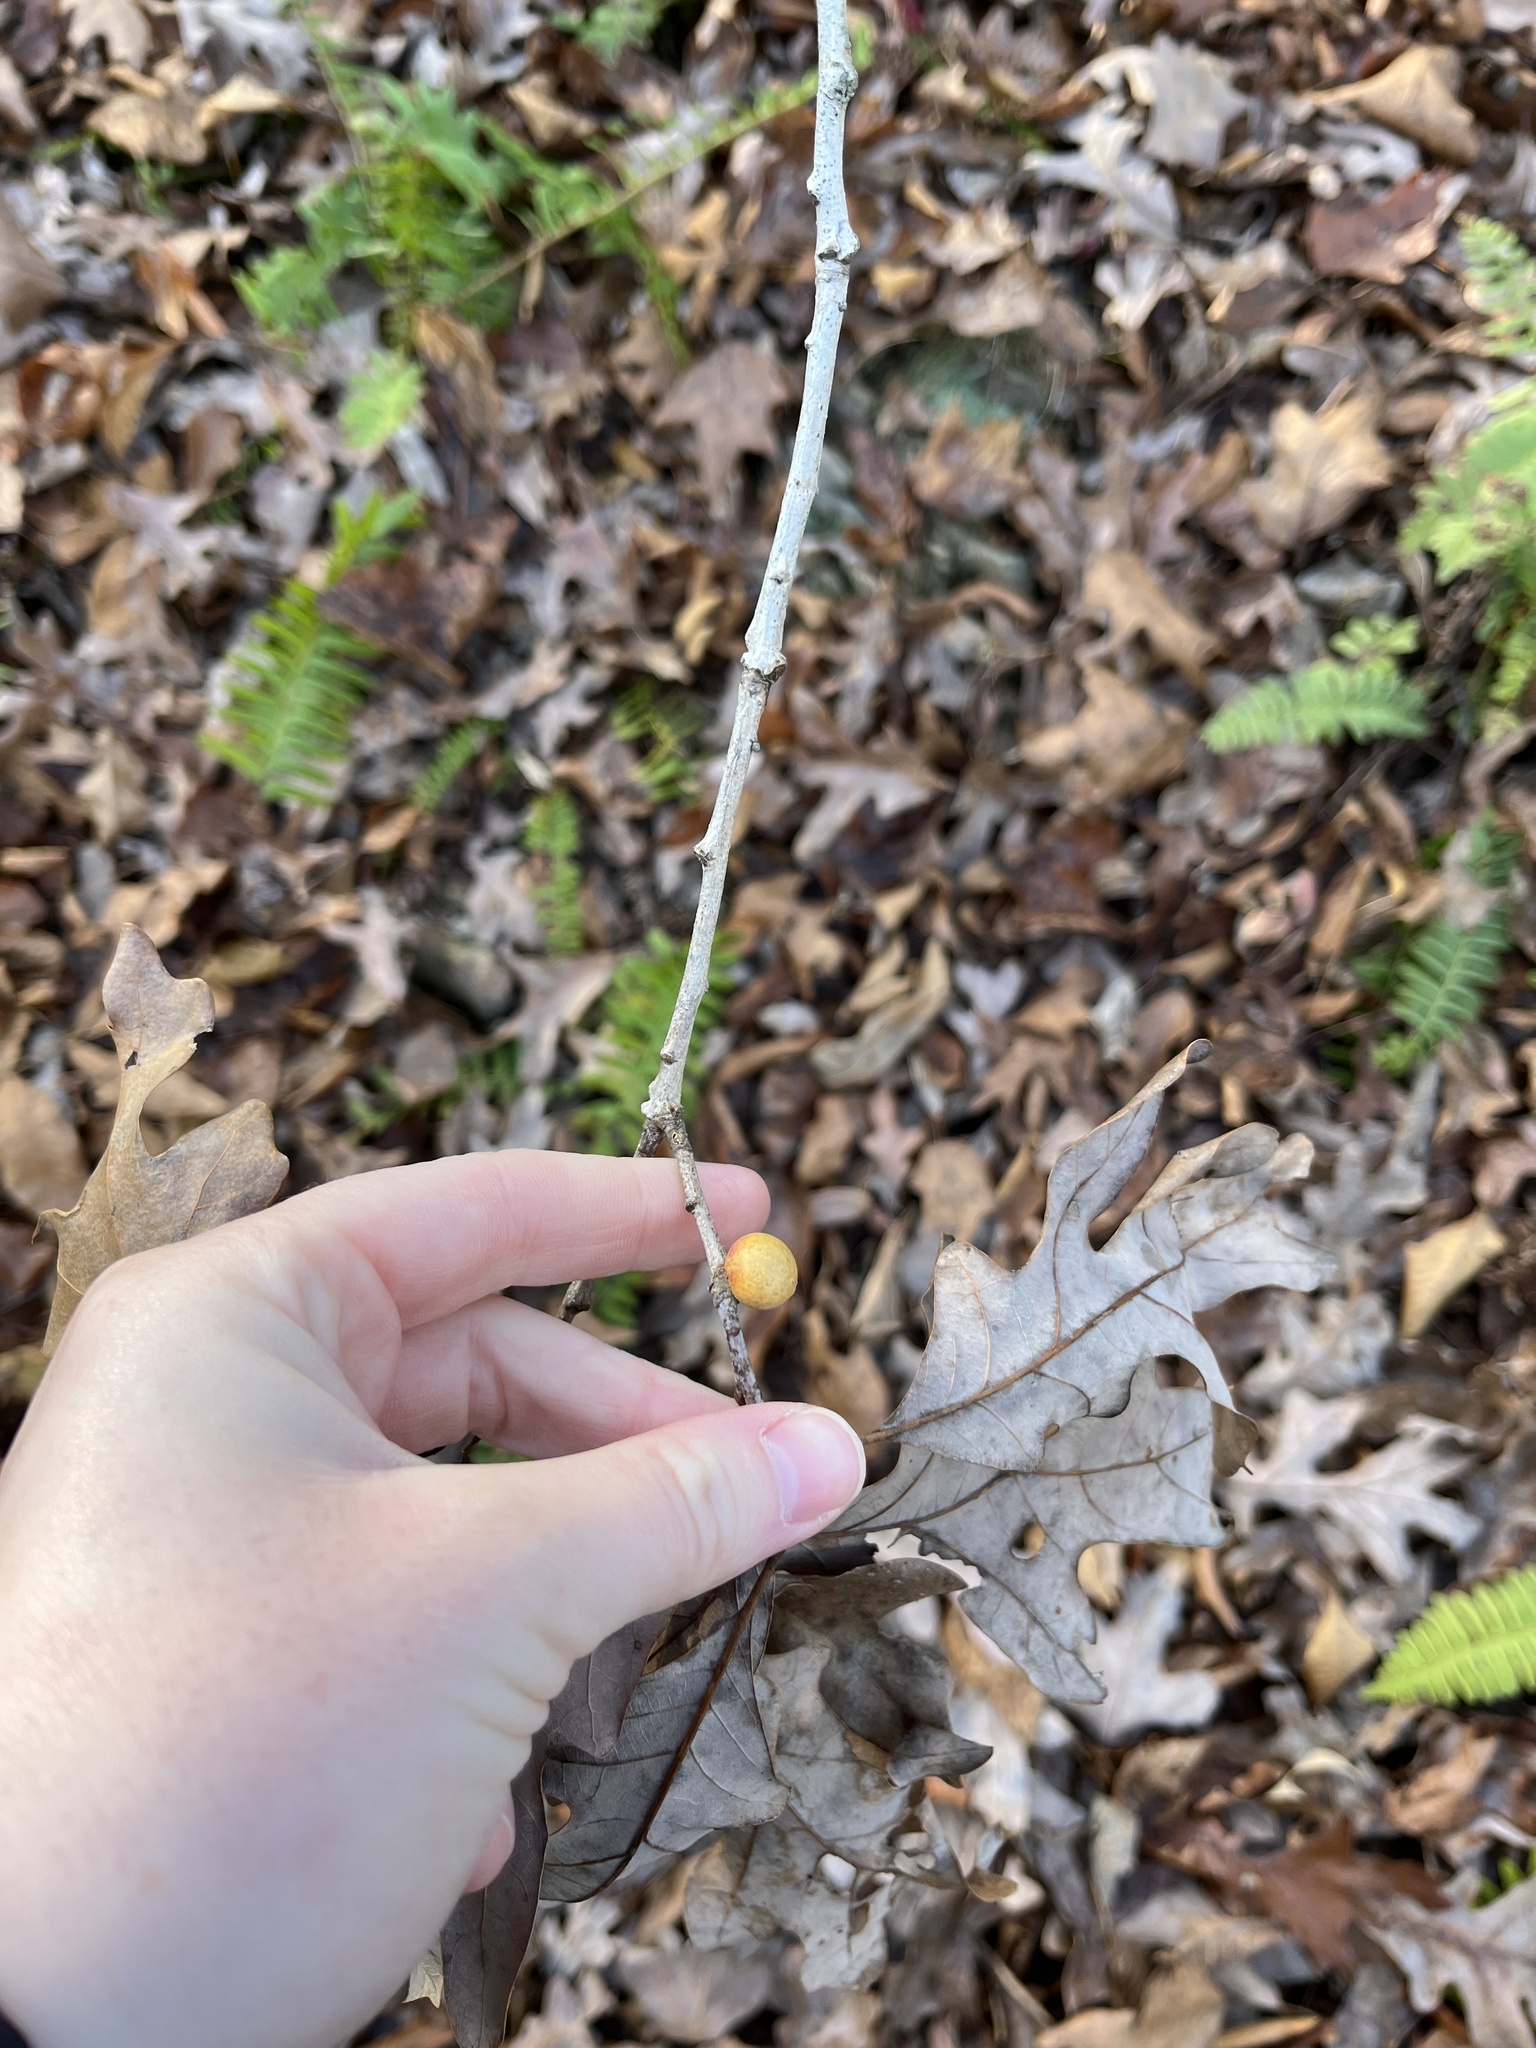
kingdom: Animalia
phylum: Arthropoda
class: Insecta
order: Hymenoptera
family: Cynipidae
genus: Disholcaspis
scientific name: Disholcaspis quercusglobulus
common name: Round bullet gall wasp
